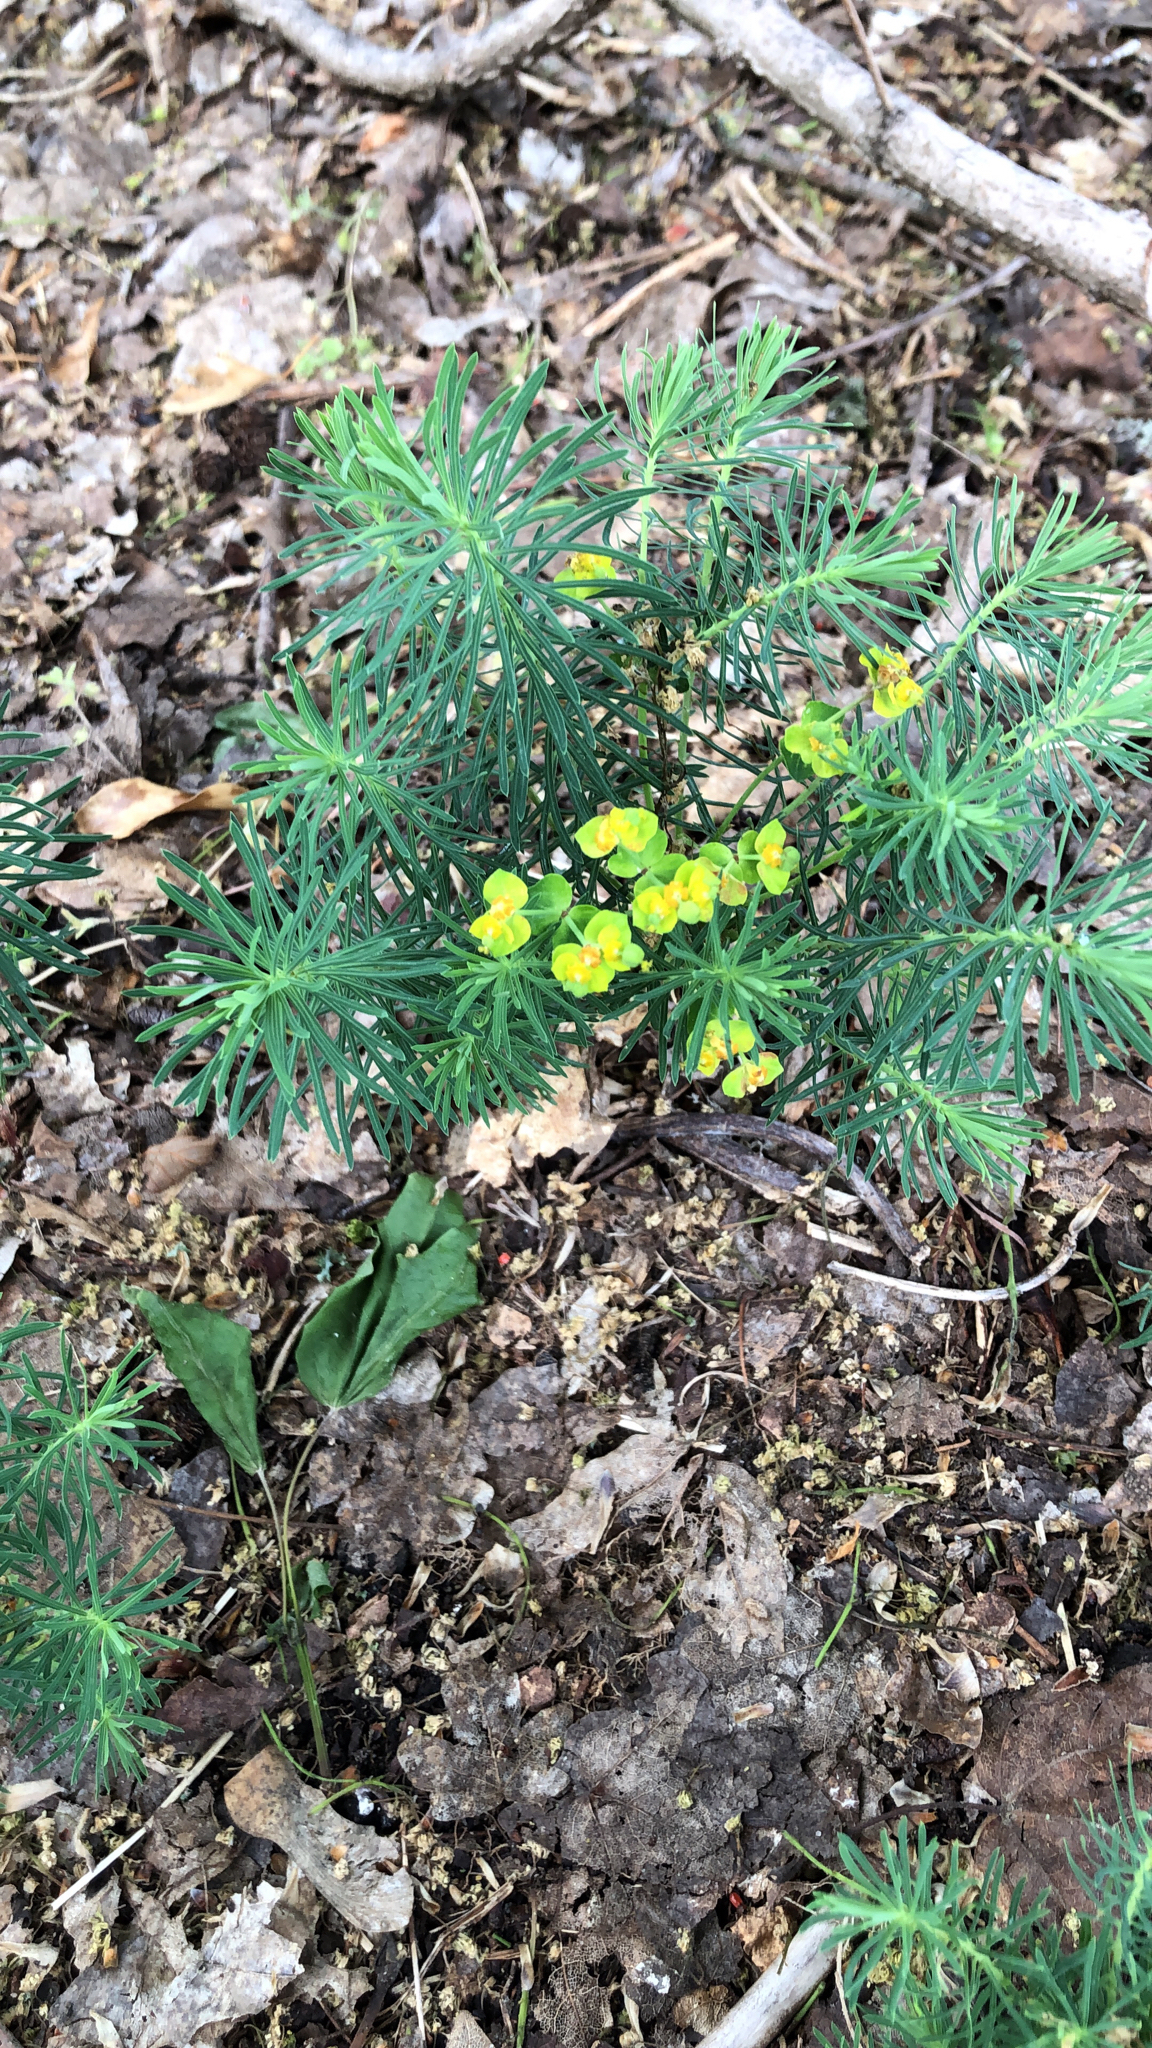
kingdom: Plantae
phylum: Tracheophyta
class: Magnoliopsida
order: Malpighiales
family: Euphorbiaceae
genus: Euphorbia
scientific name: Euphorbia cyparissias
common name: Cypress spurge
